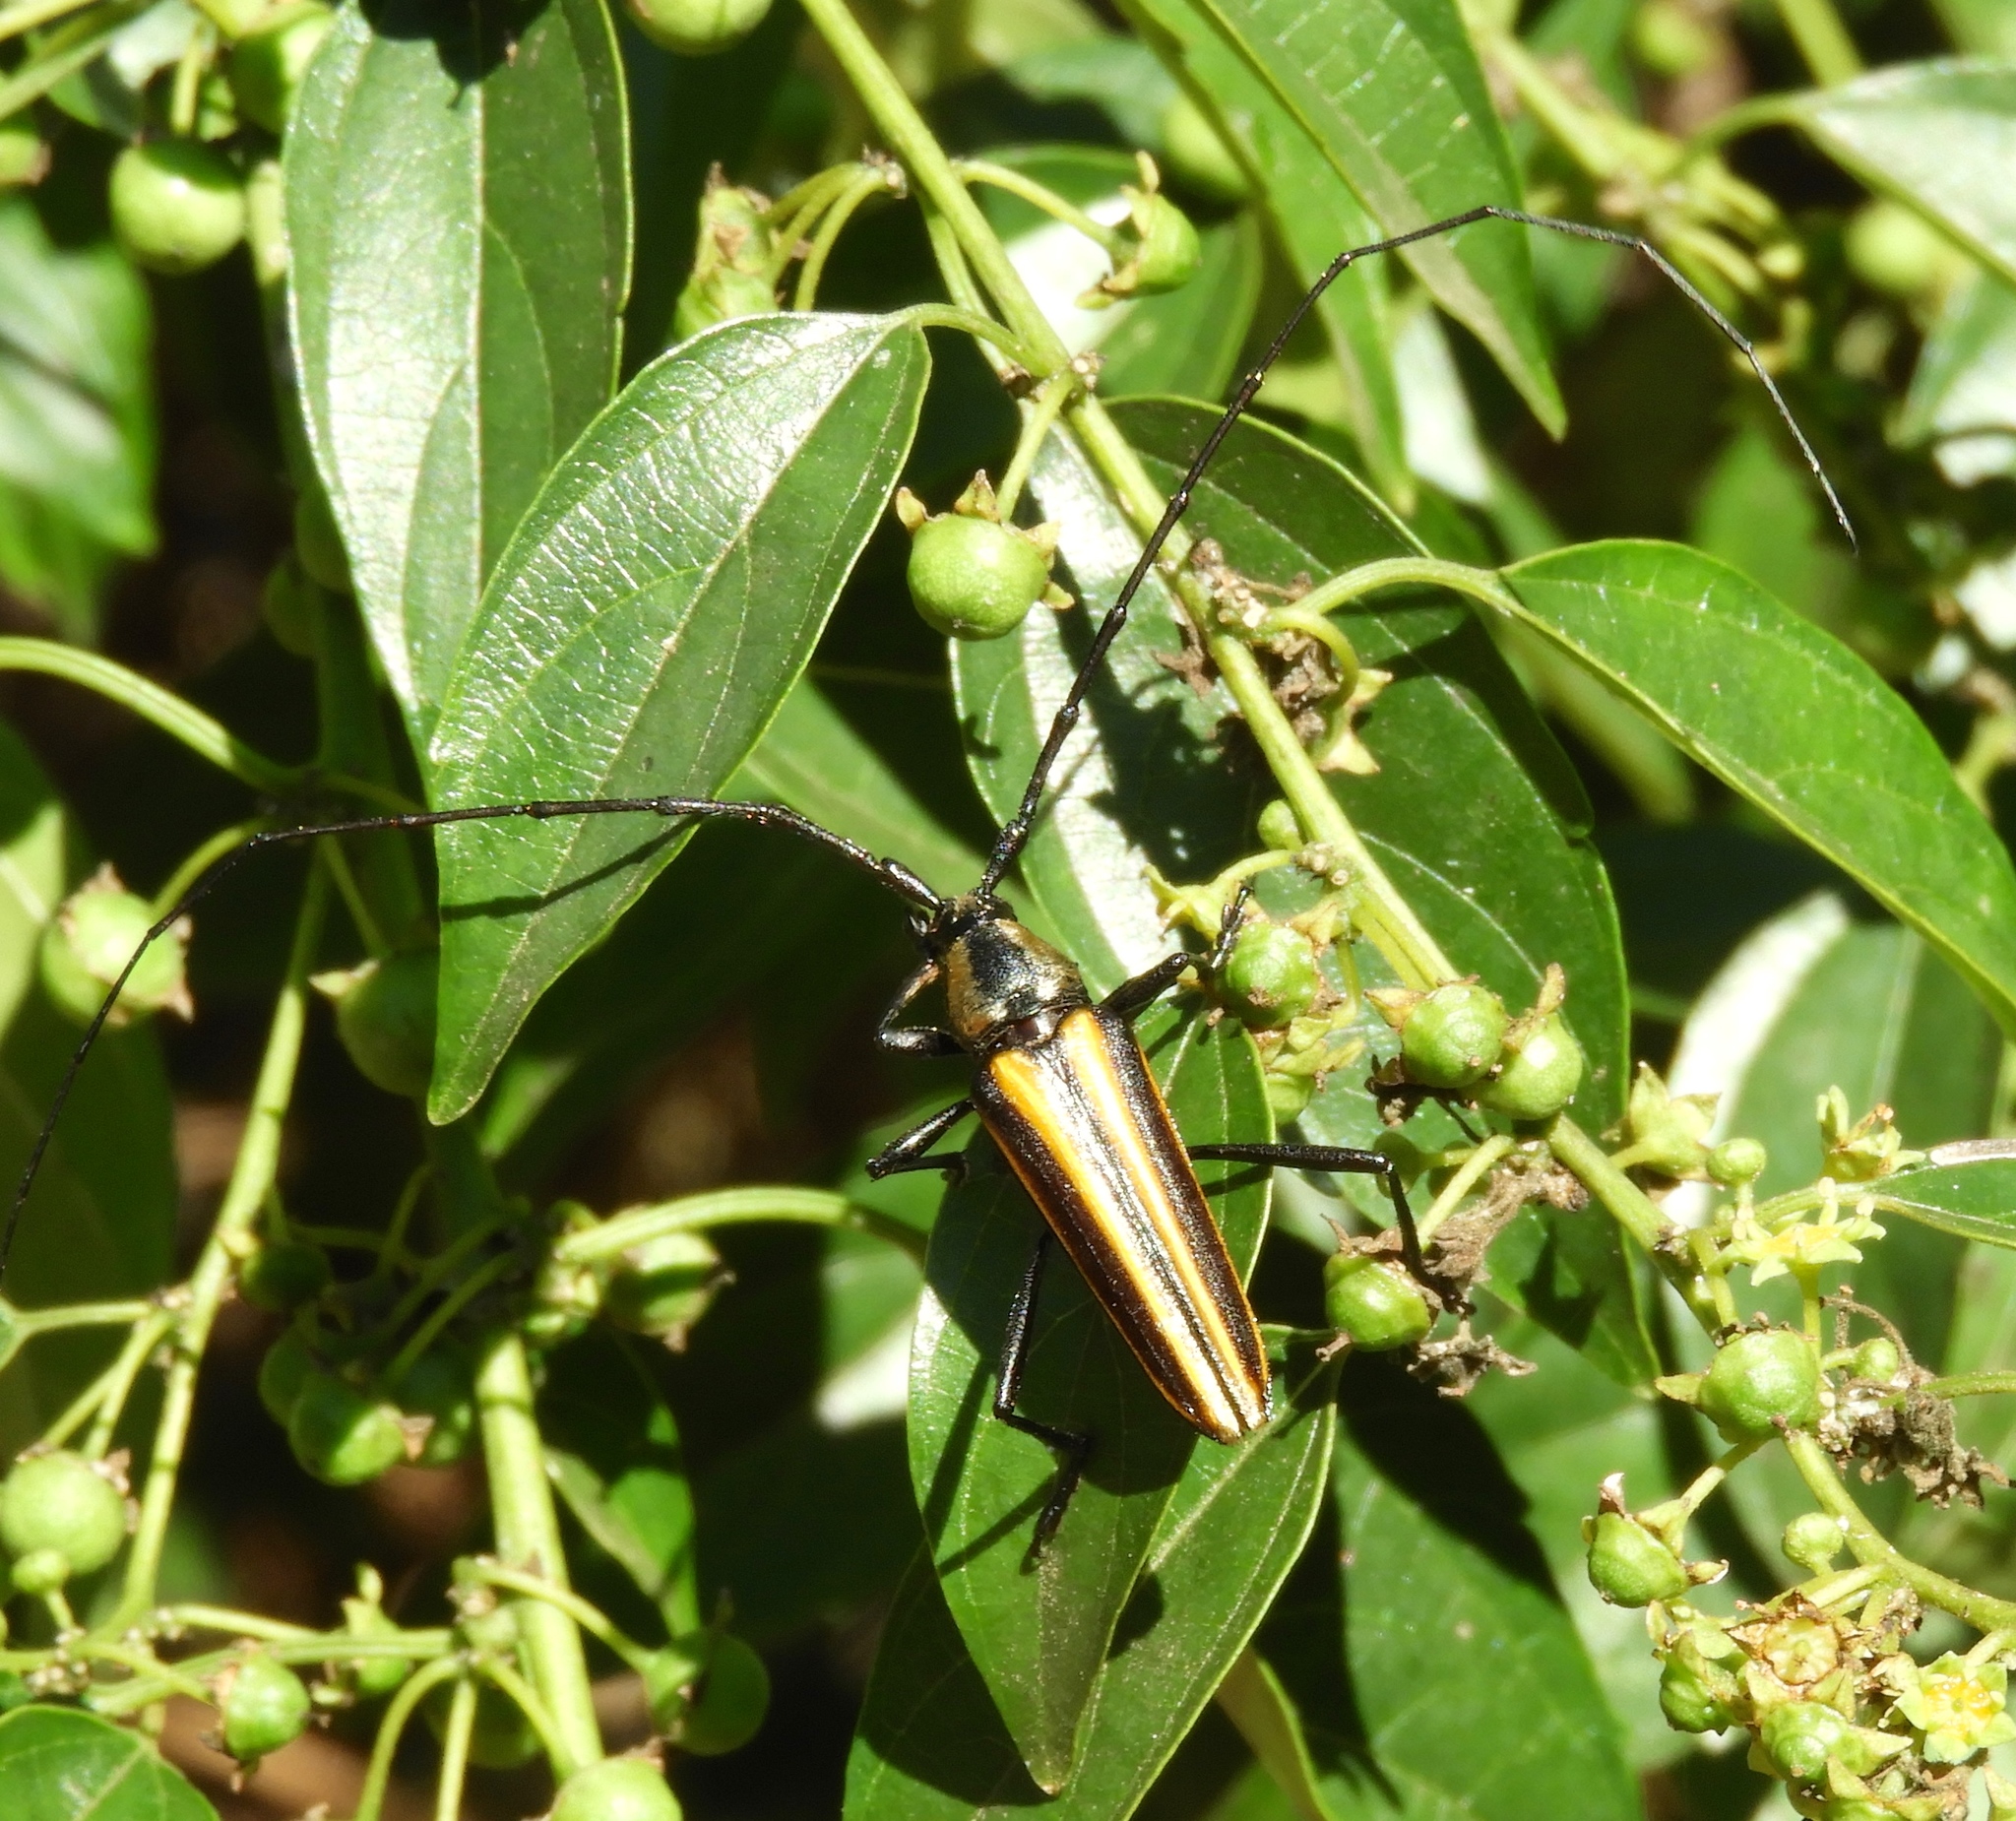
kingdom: Animalia
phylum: Arthropoda
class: Insecta
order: Coleoptera
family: Cerambycidae
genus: Sphaenothecus
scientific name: Sphaenothecus argenteus
